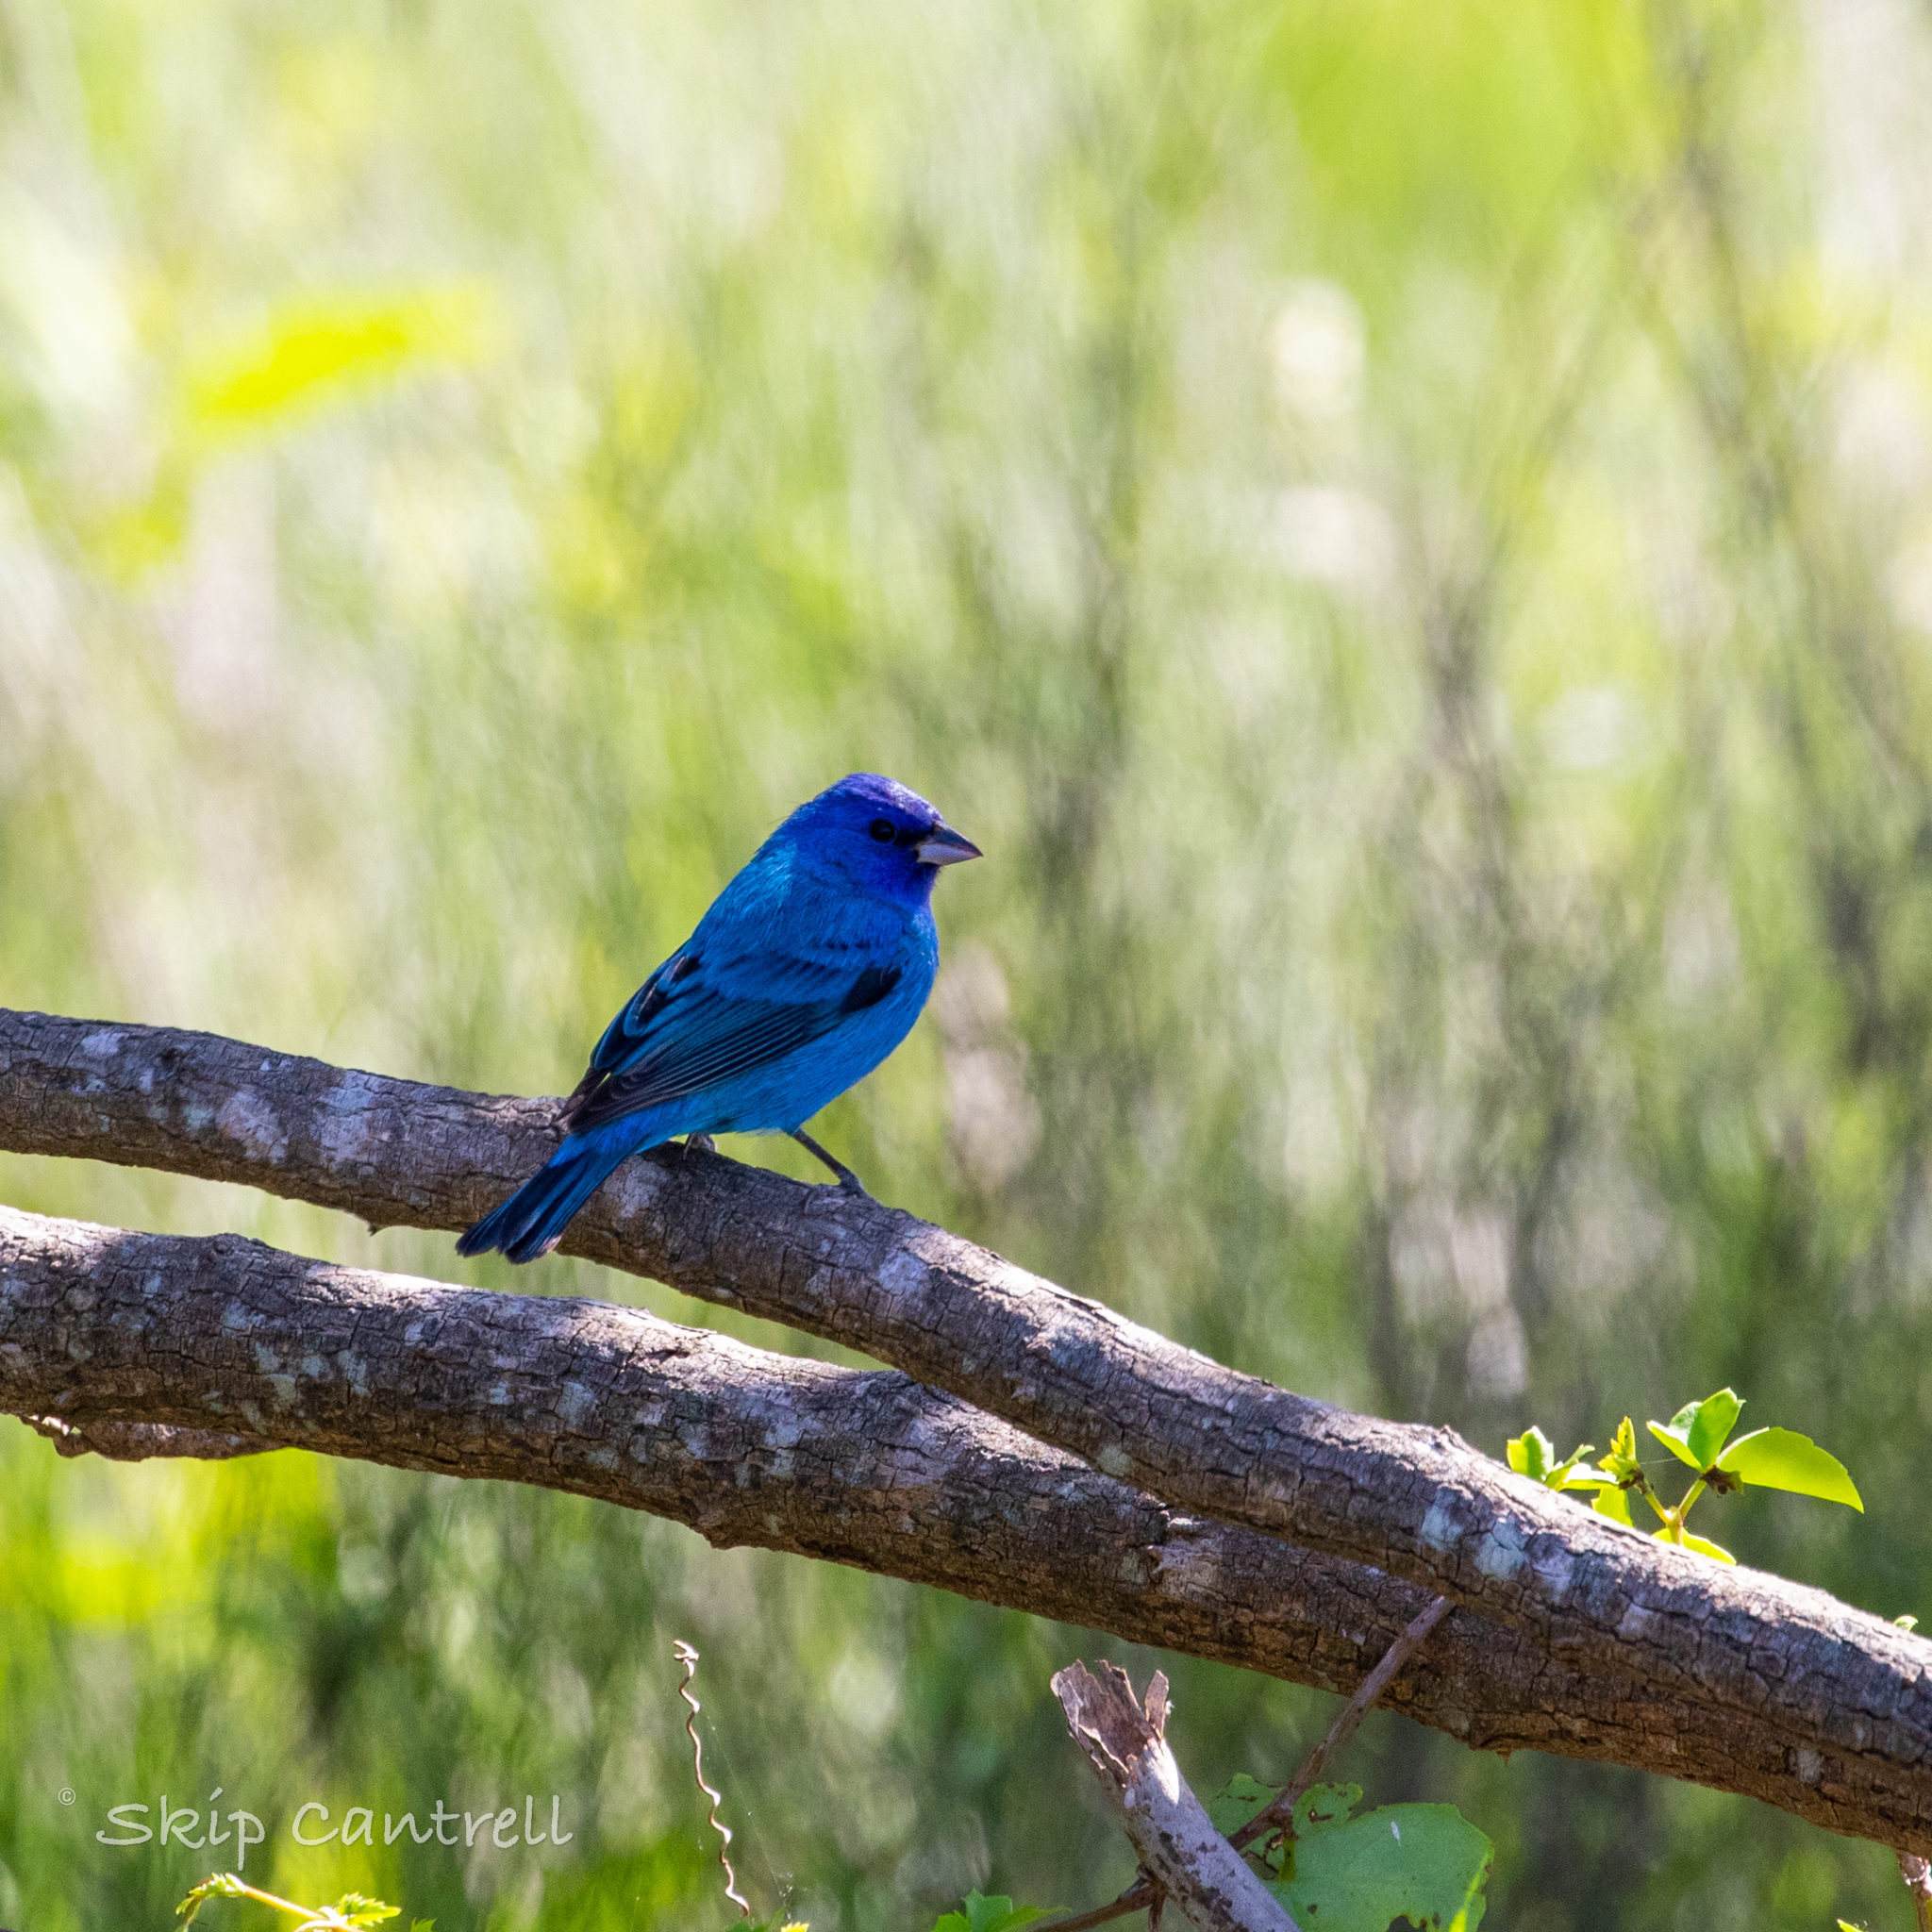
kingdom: Animalia
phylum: Chordata
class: Aves
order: Passeriformes
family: Cardinalidae
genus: Passerina
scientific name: Passerina cyanea
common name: Indigo bunting
